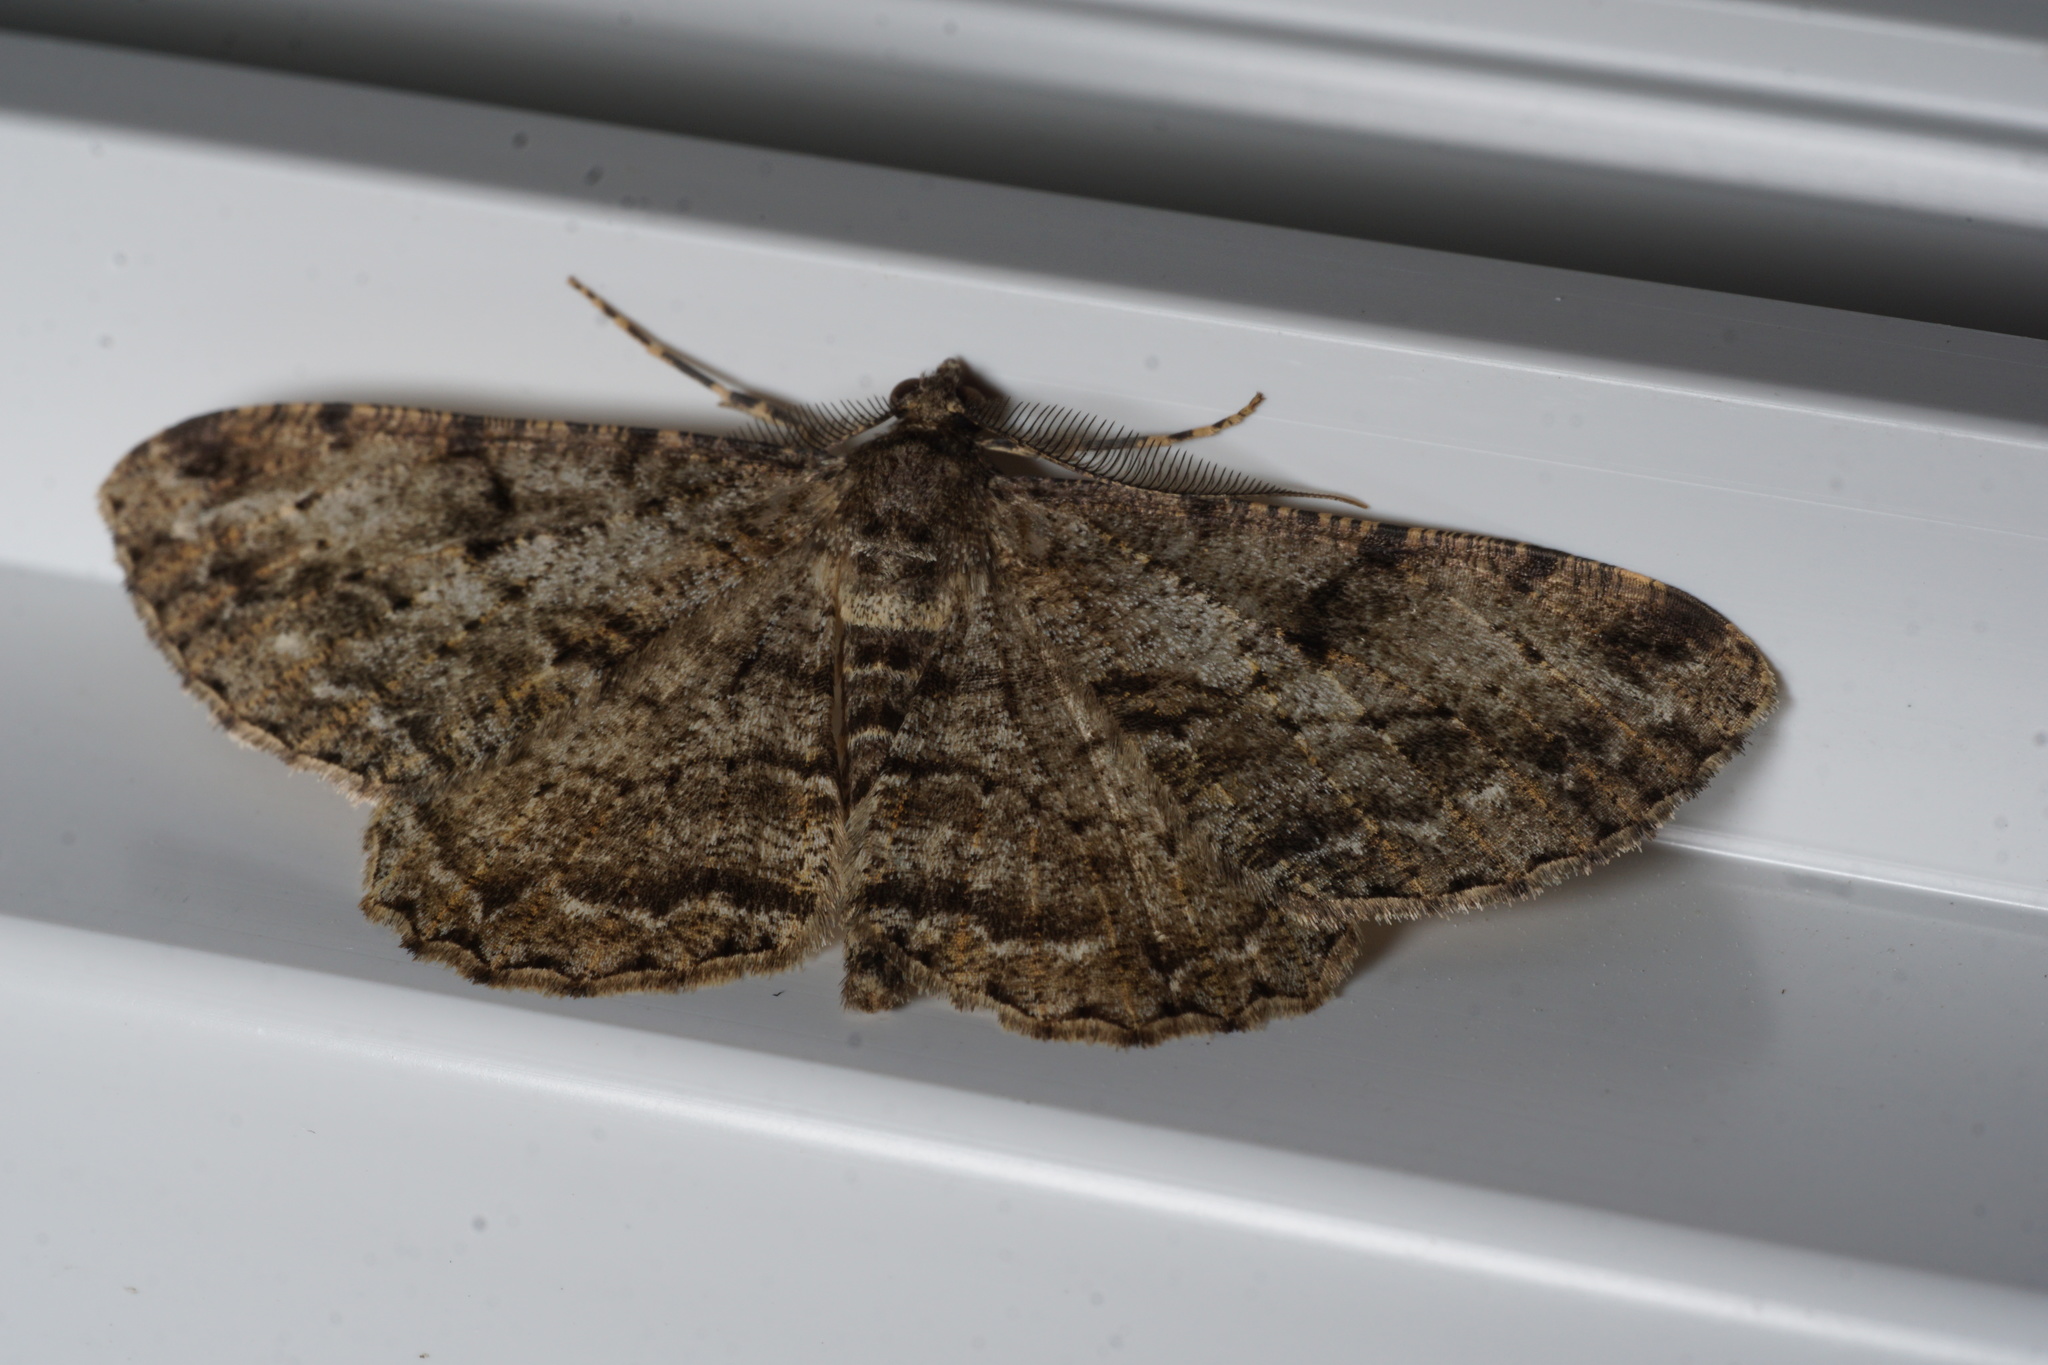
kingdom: Animalia
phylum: Arthropoda
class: Insecta
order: Lepidoptera
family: Geometridae
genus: Peribatodes
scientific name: Peribatodes rhomboidaria
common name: Willow beauty
